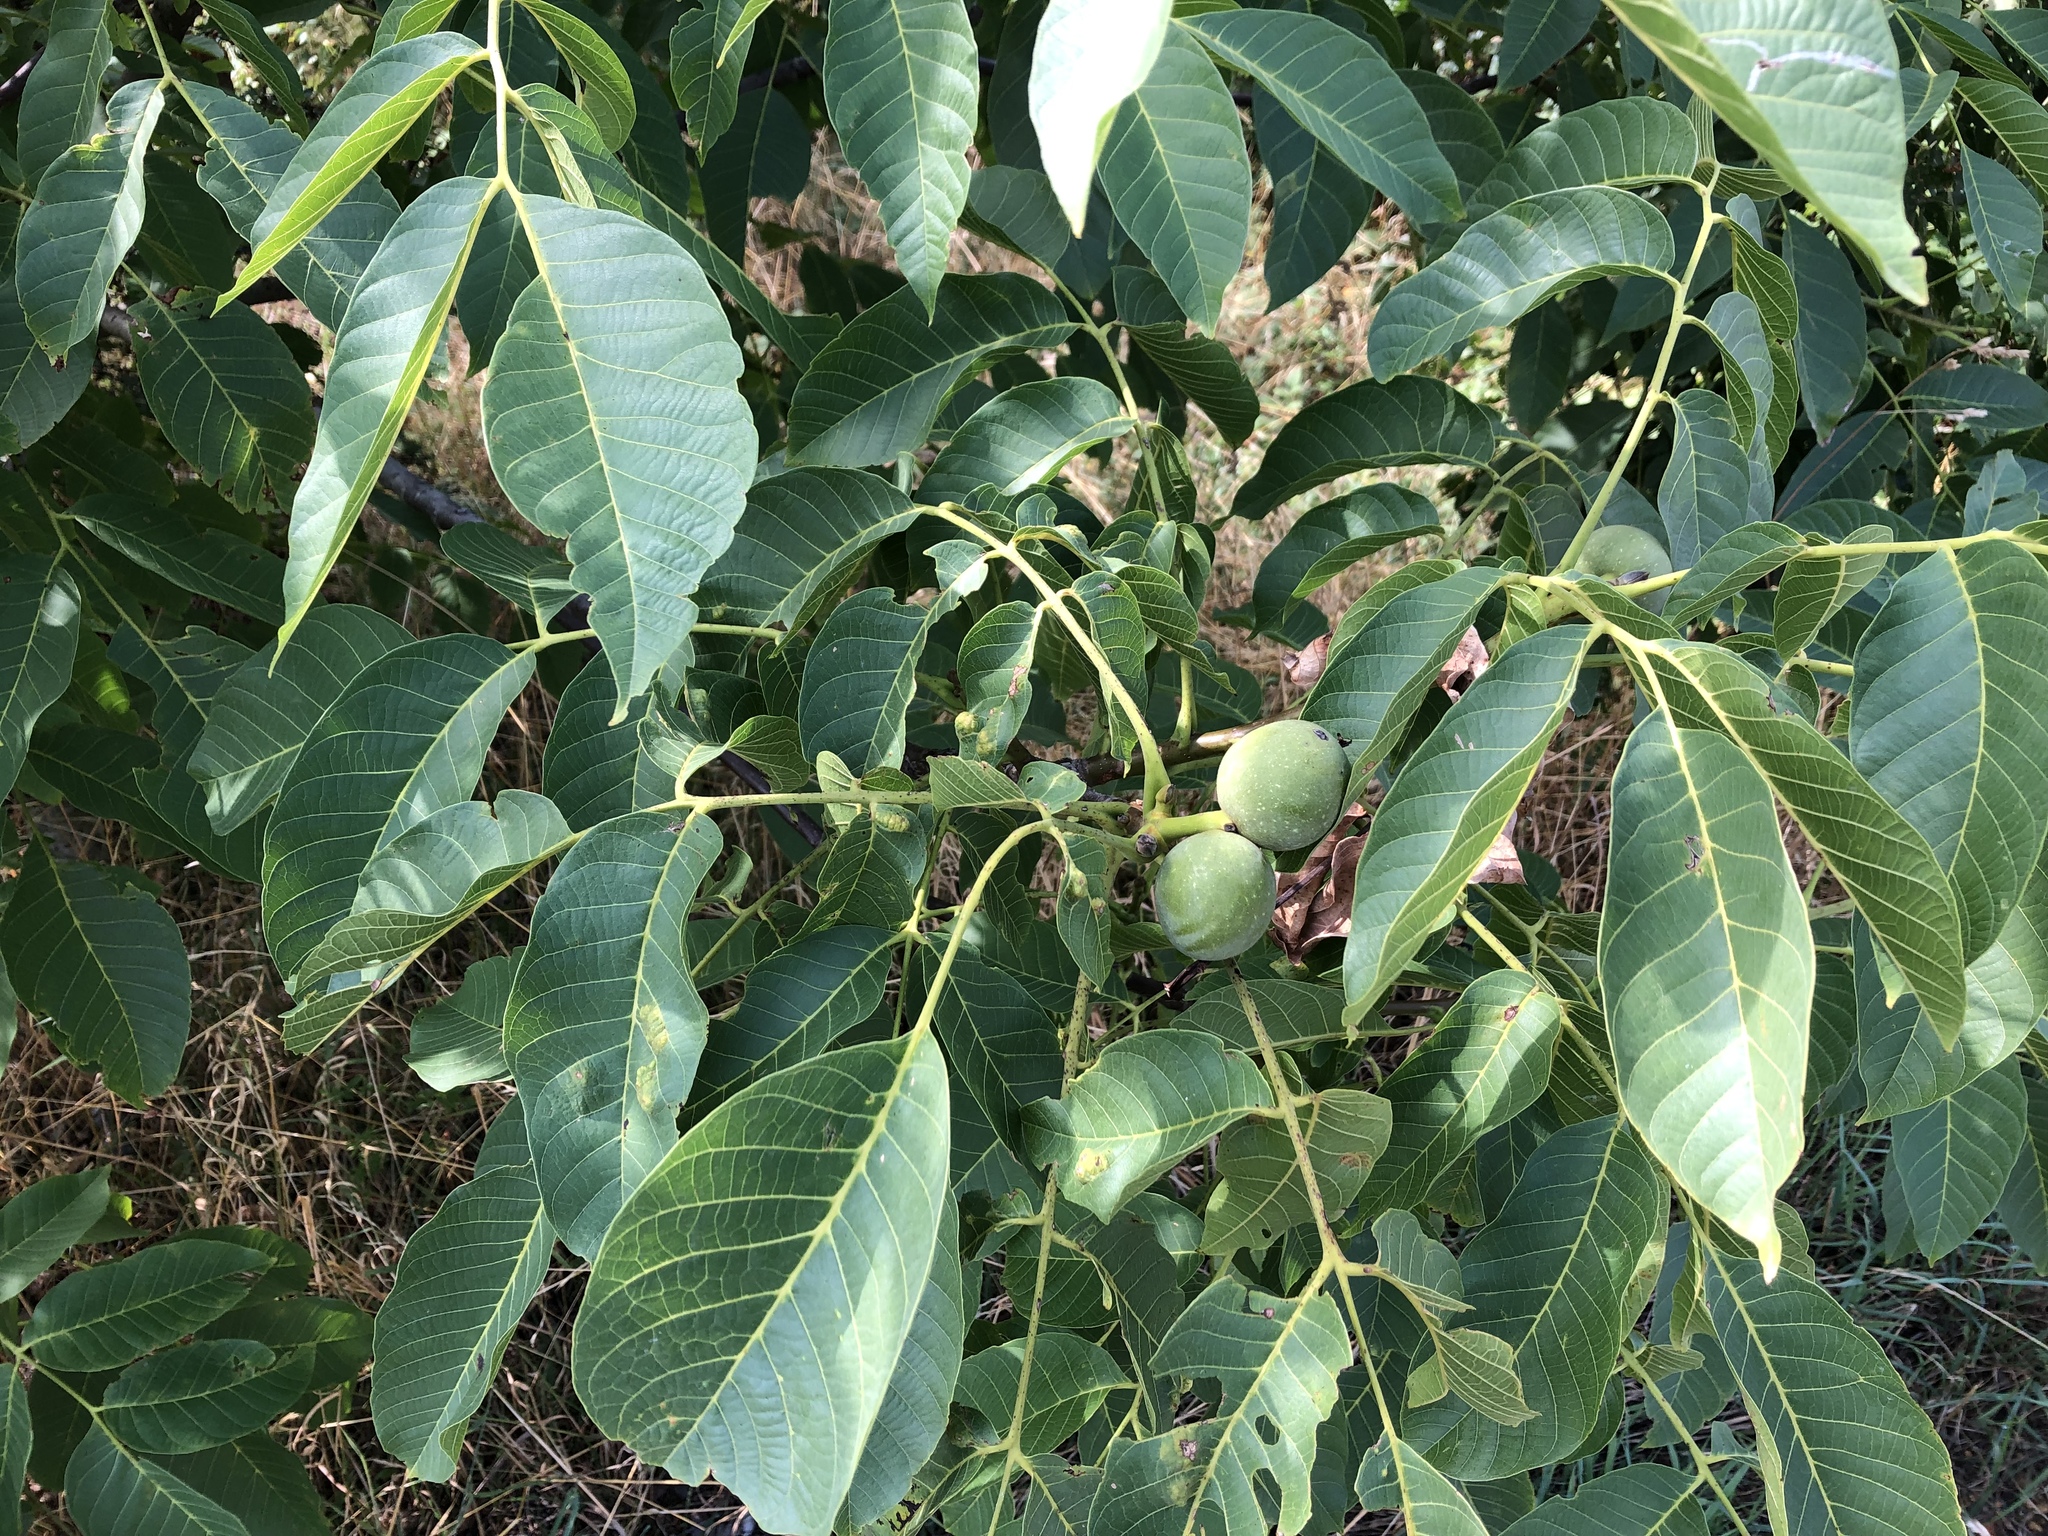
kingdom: Plantae
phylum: Tracheophyta
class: Magnoliopsida
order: Fagales
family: Juglandaceae
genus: Juglans
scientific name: Juglans regia
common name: Walnut
